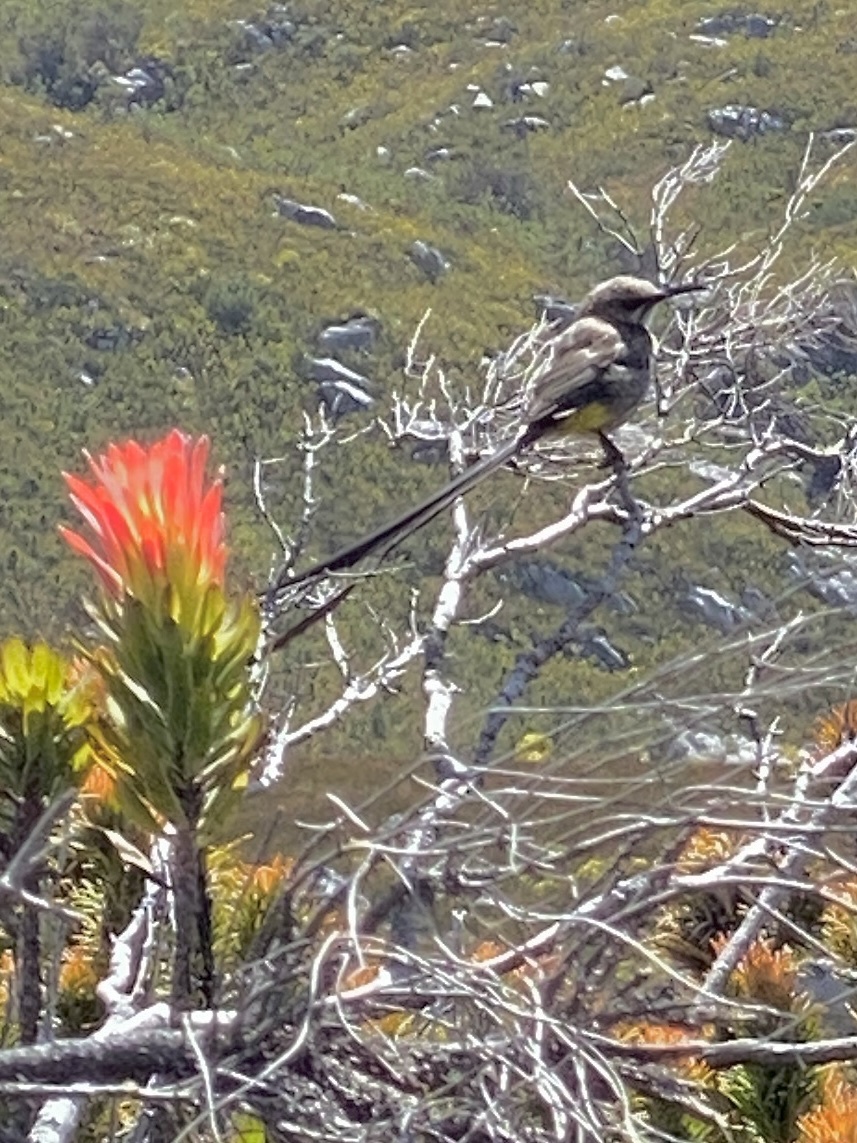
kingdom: Animalia
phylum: Chordata
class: Aves
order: Passeriformes
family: Promeropidae
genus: Promerops
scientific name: Promerops cafer
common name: Cape sugarbird
